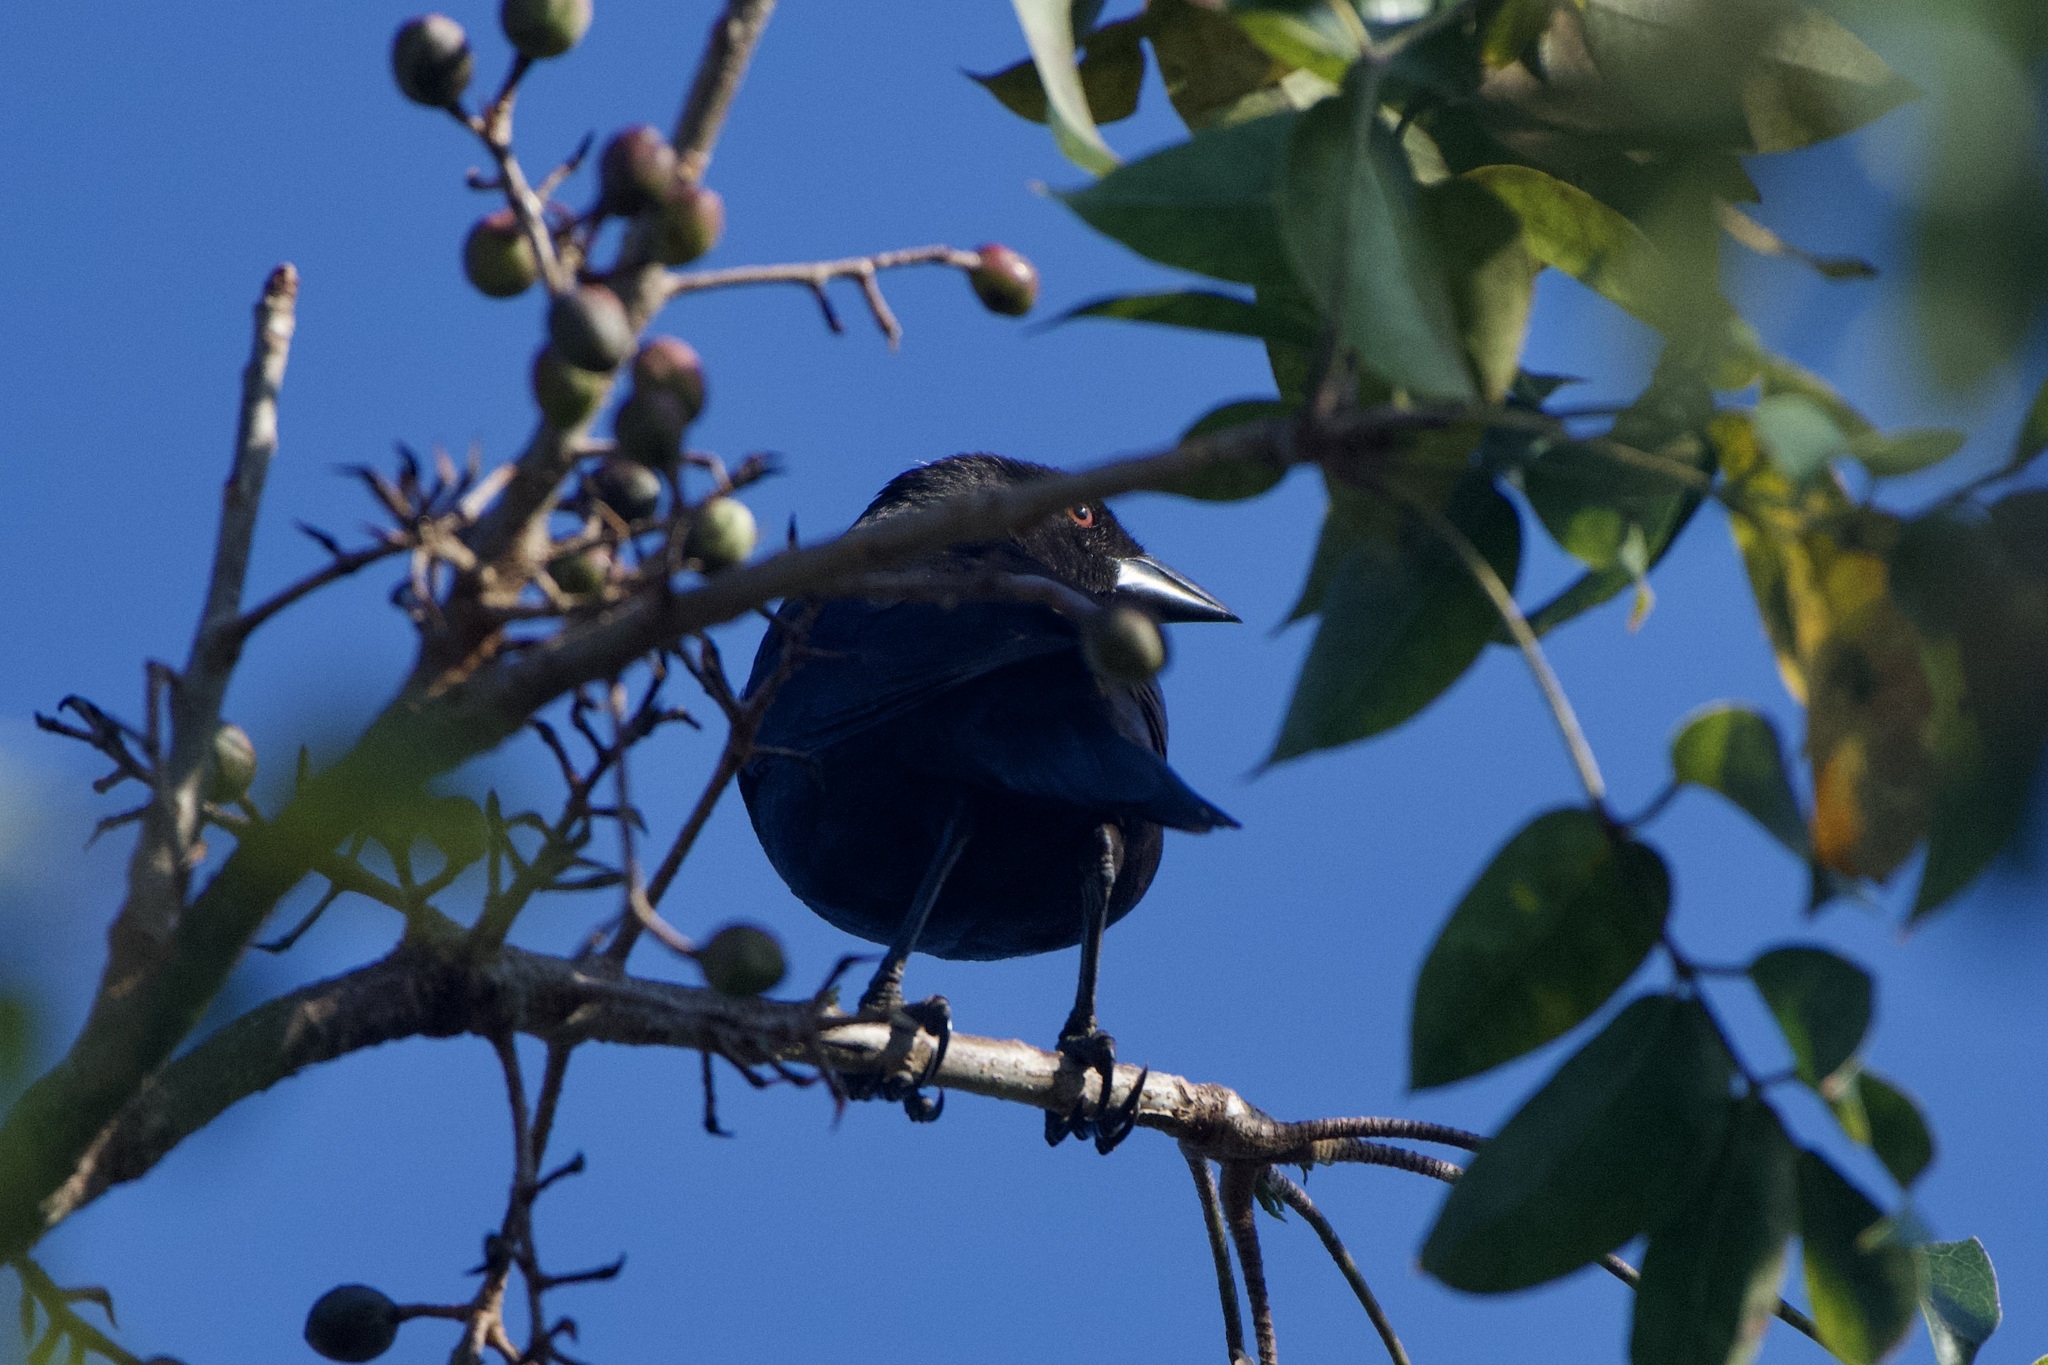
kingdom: Animalia
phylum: Chordata
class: Aves
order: Passeriformes
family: Icteridae
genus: Molothrus
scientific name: Molothrus aeneus
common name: Bronzed cowbird
